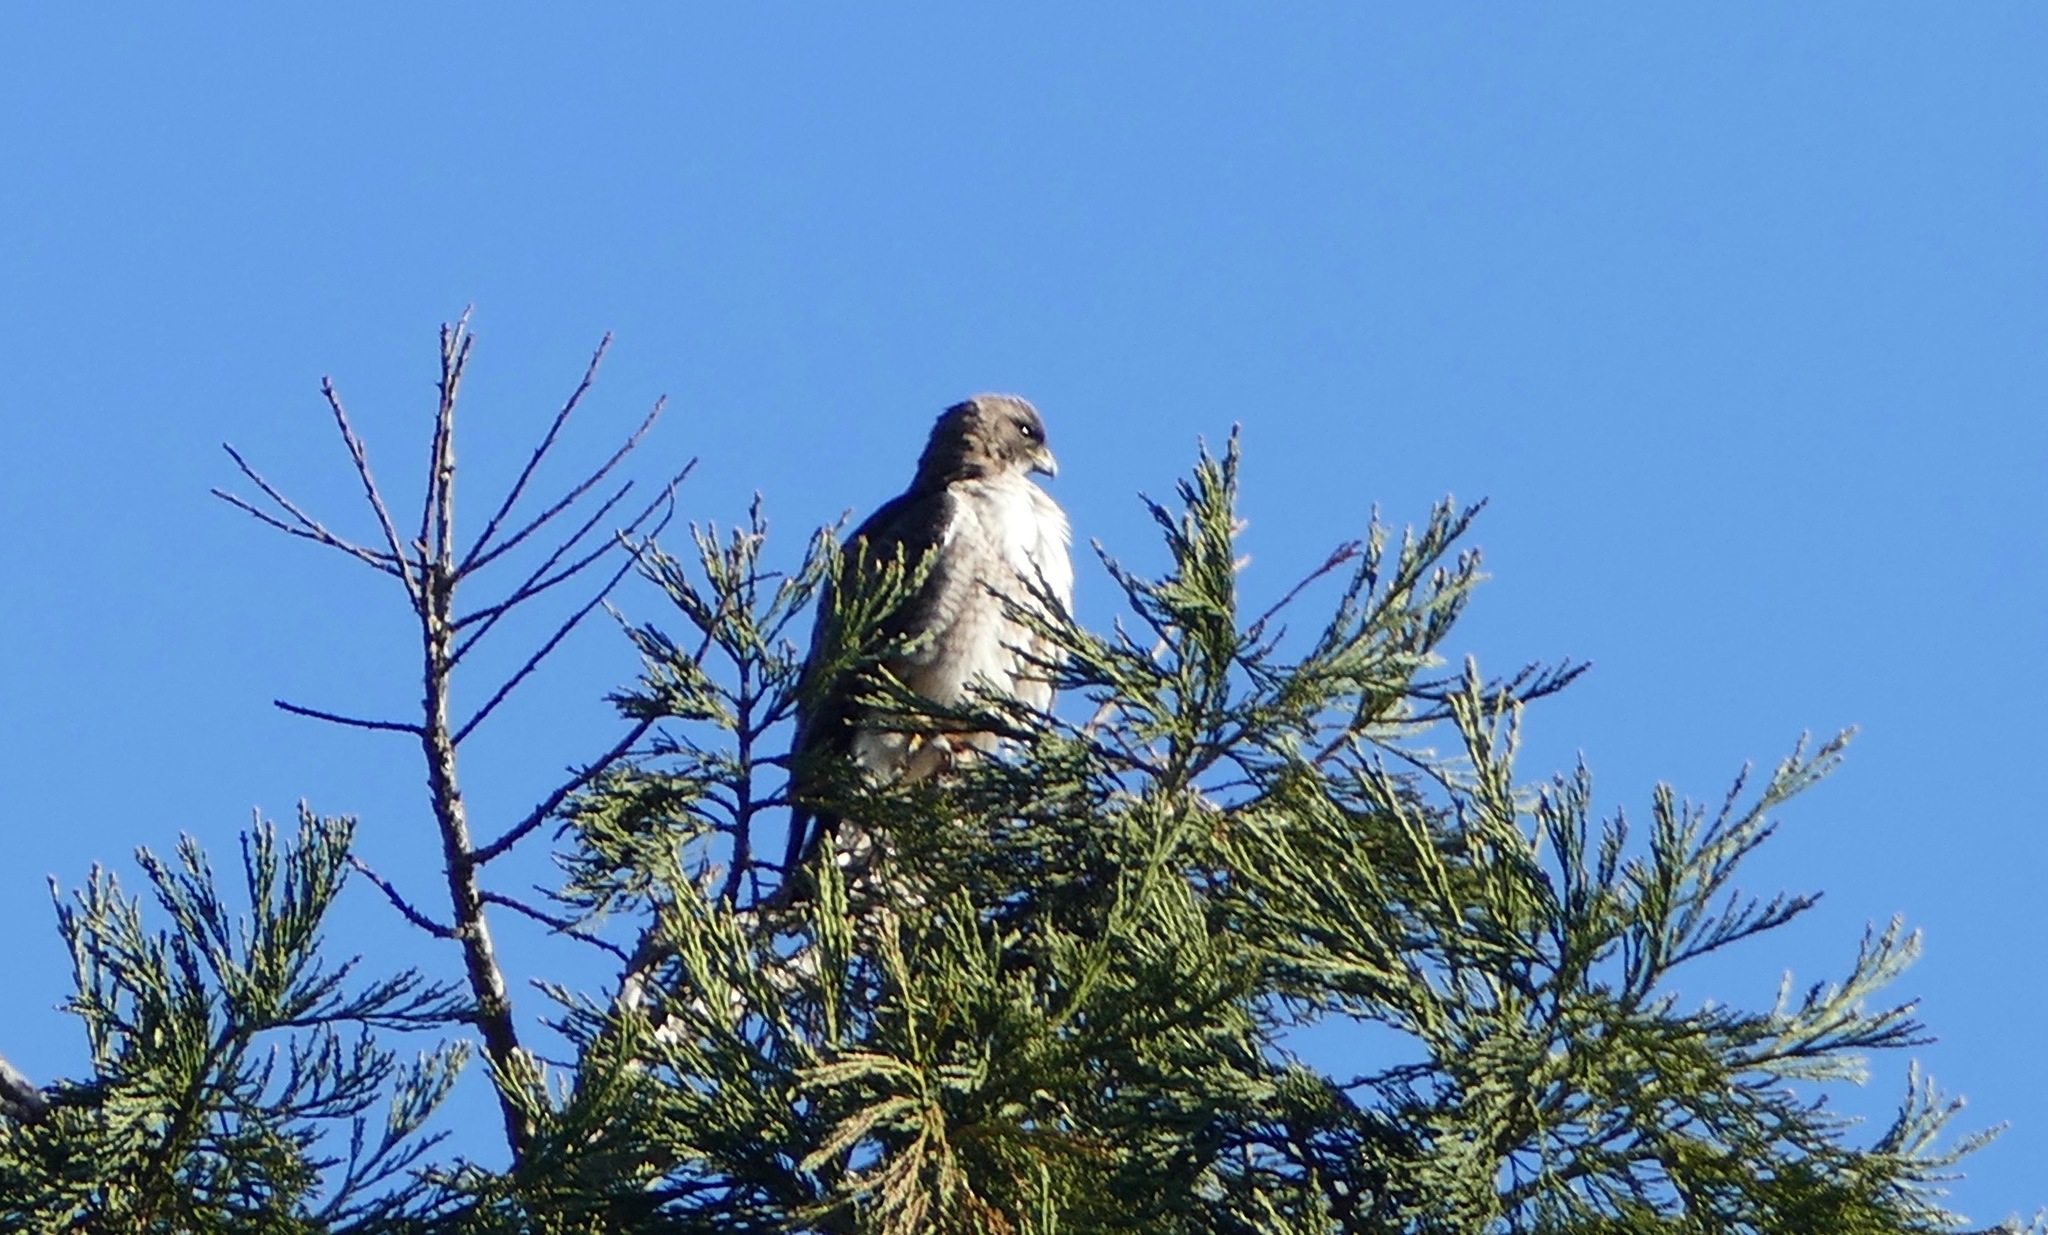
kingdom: Animalia
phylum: Chordata
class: Aves
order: Accipitriformes
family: Accipitridae
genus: Buteo
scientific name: Buteo jamaicensis
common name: Red-tailed hawk
